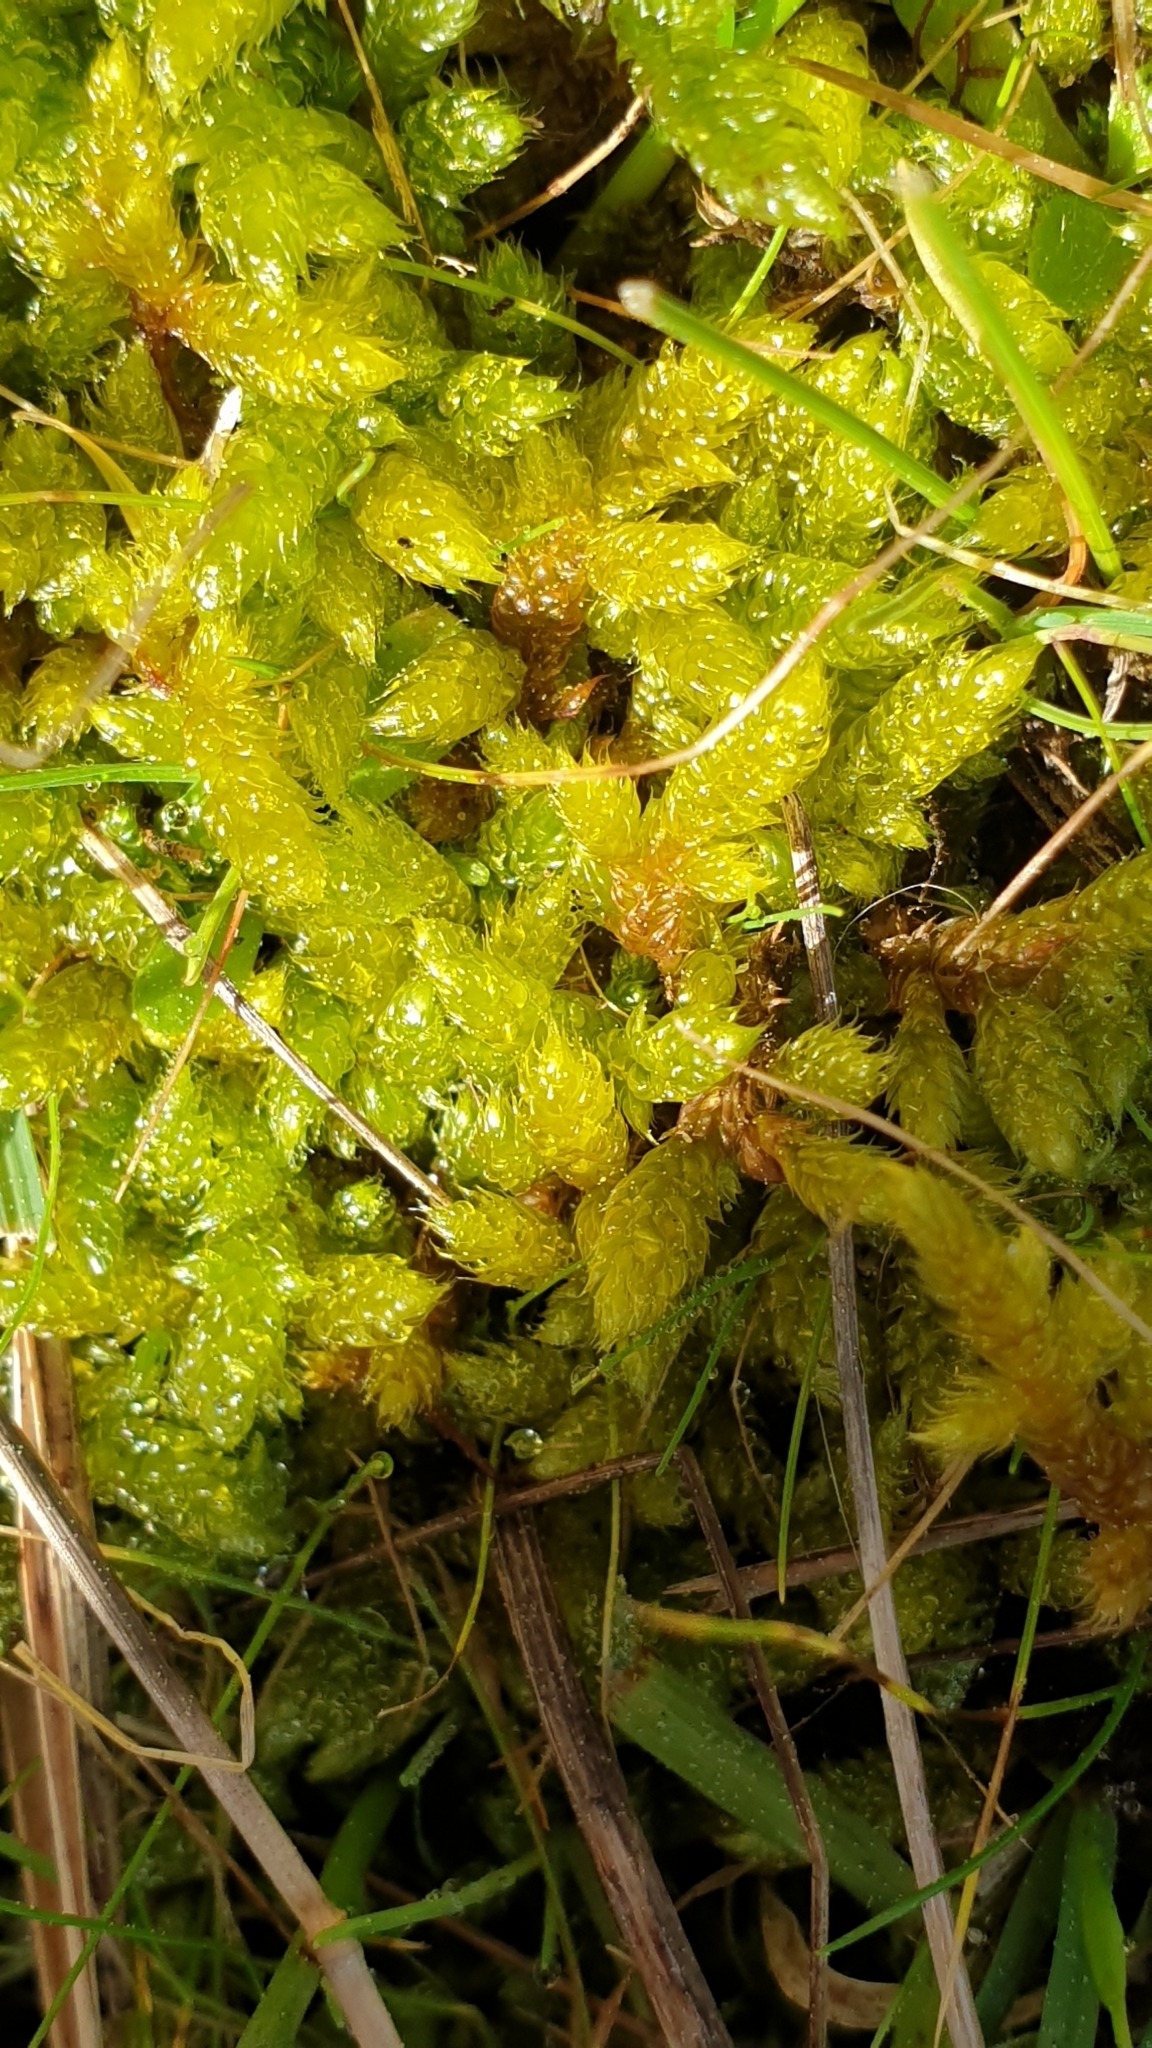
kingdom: Plantae
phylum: Bryophyta
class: Bryopsida
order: Hypnales
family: Hypnaceae
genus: Hypnum
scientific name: Hypnum cupressiforme
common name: Cypress-leaved plait-moss
